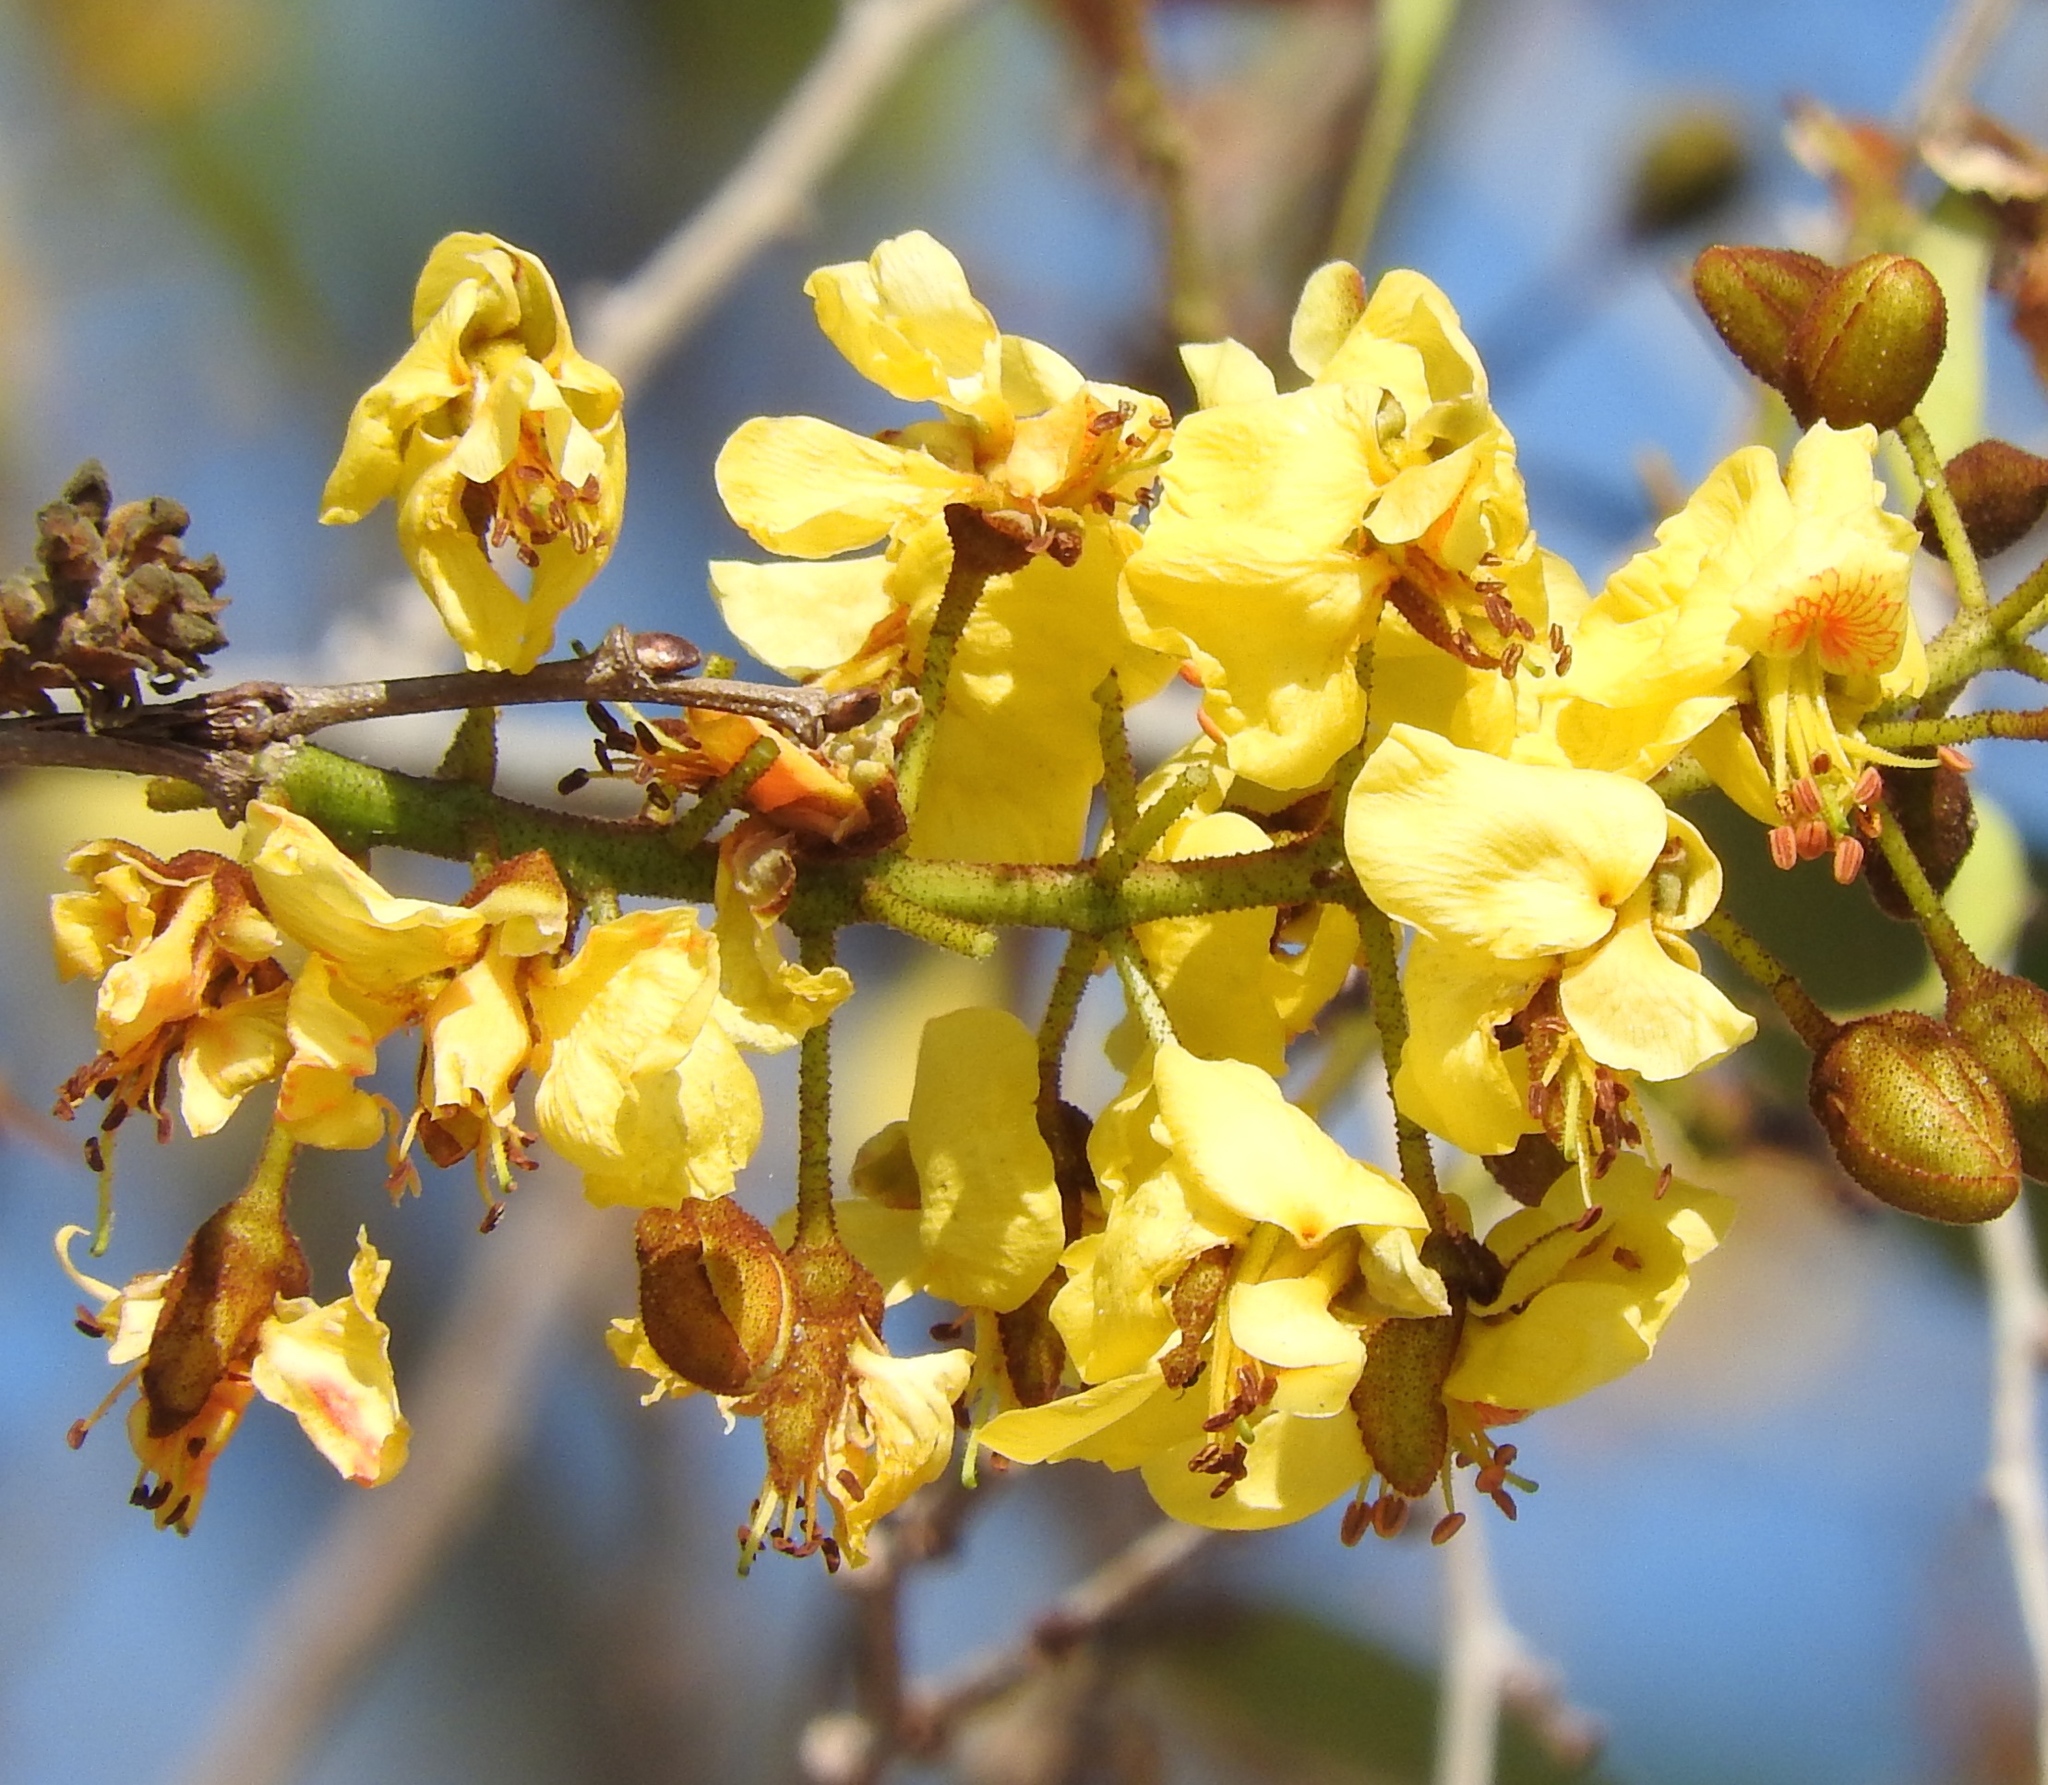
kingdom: Plantae
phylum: Tracheophyta
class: Magnoliopsida
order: Fabales
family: Fabaceae
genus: Cenostigma
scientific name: Cenostigma eriostachys
